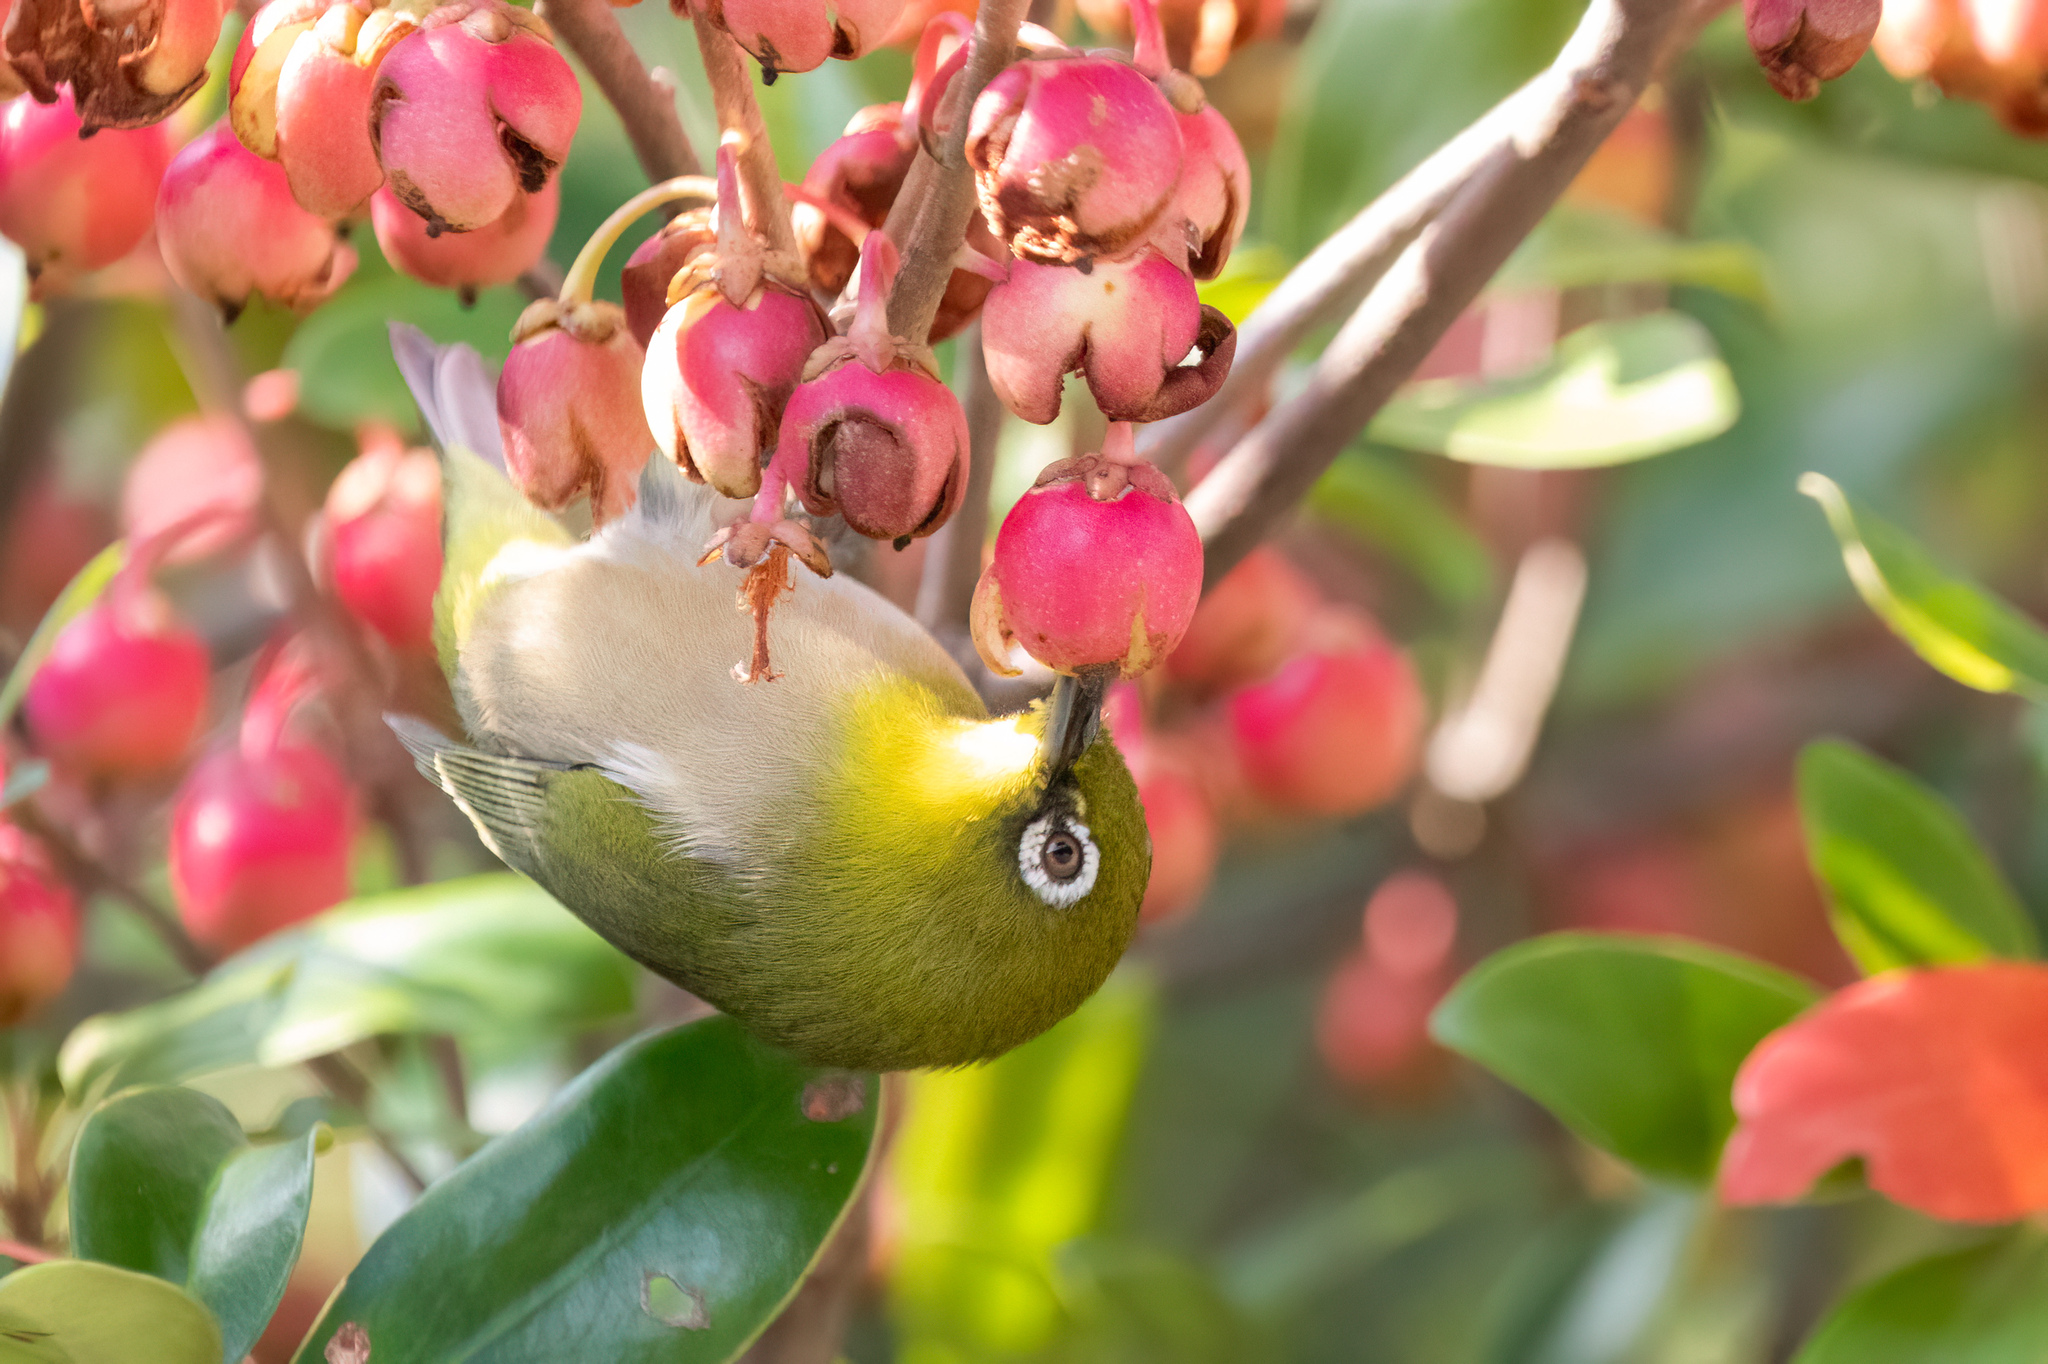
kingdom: Animalia
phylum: Chordata
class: Aves
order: Passeriformes
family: Zosteropidae
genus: Zosterops
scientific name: Zosterops japonicus
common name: Japanese white-eye
